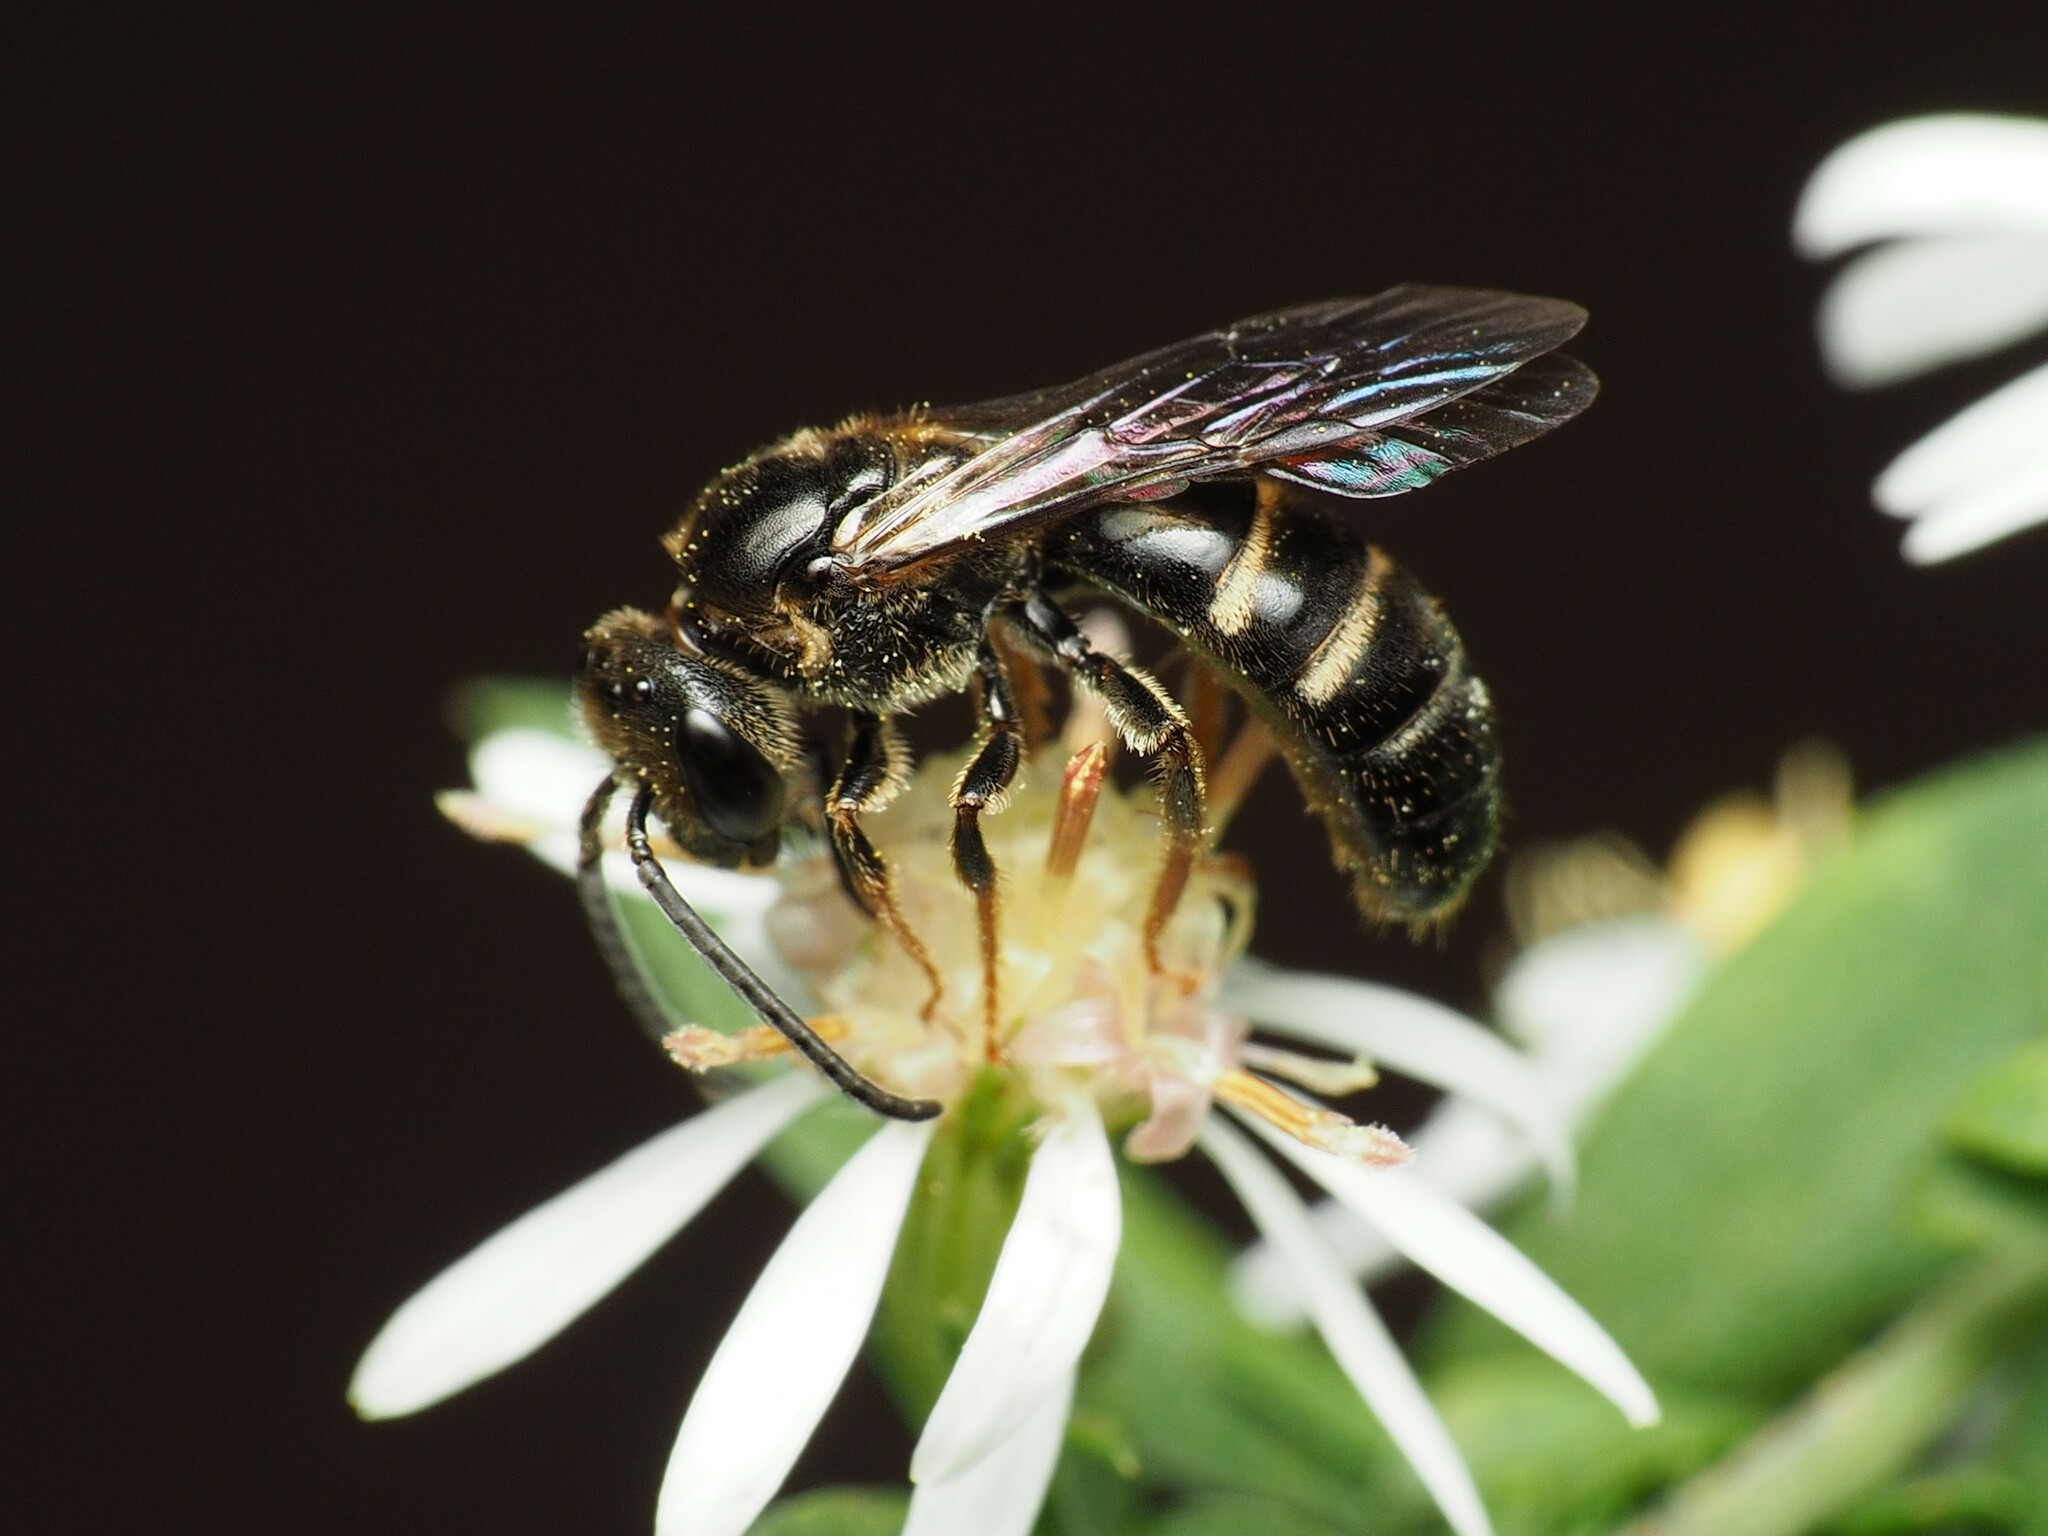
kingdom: Animalia
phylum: Arthropoda
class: Insecta
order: Hymenoptera
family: Halictidae
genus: Lasioglossum
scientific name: Lasioglossum fuscipenne
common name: Brown-winged sweat bee
